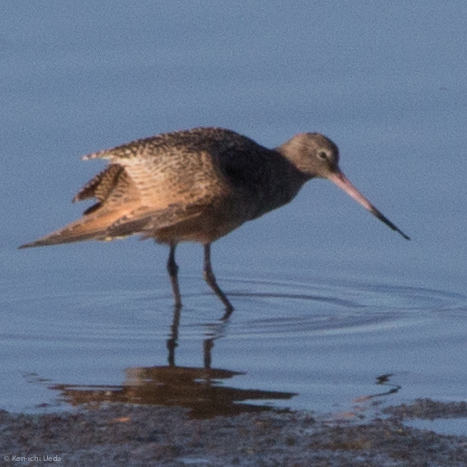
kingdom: Animalia
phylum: Chordata
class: Aves
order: Charadriiformes
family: Scolopacidae
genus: Limosa
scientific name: Limosa fedoa
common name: Marbled godwit
